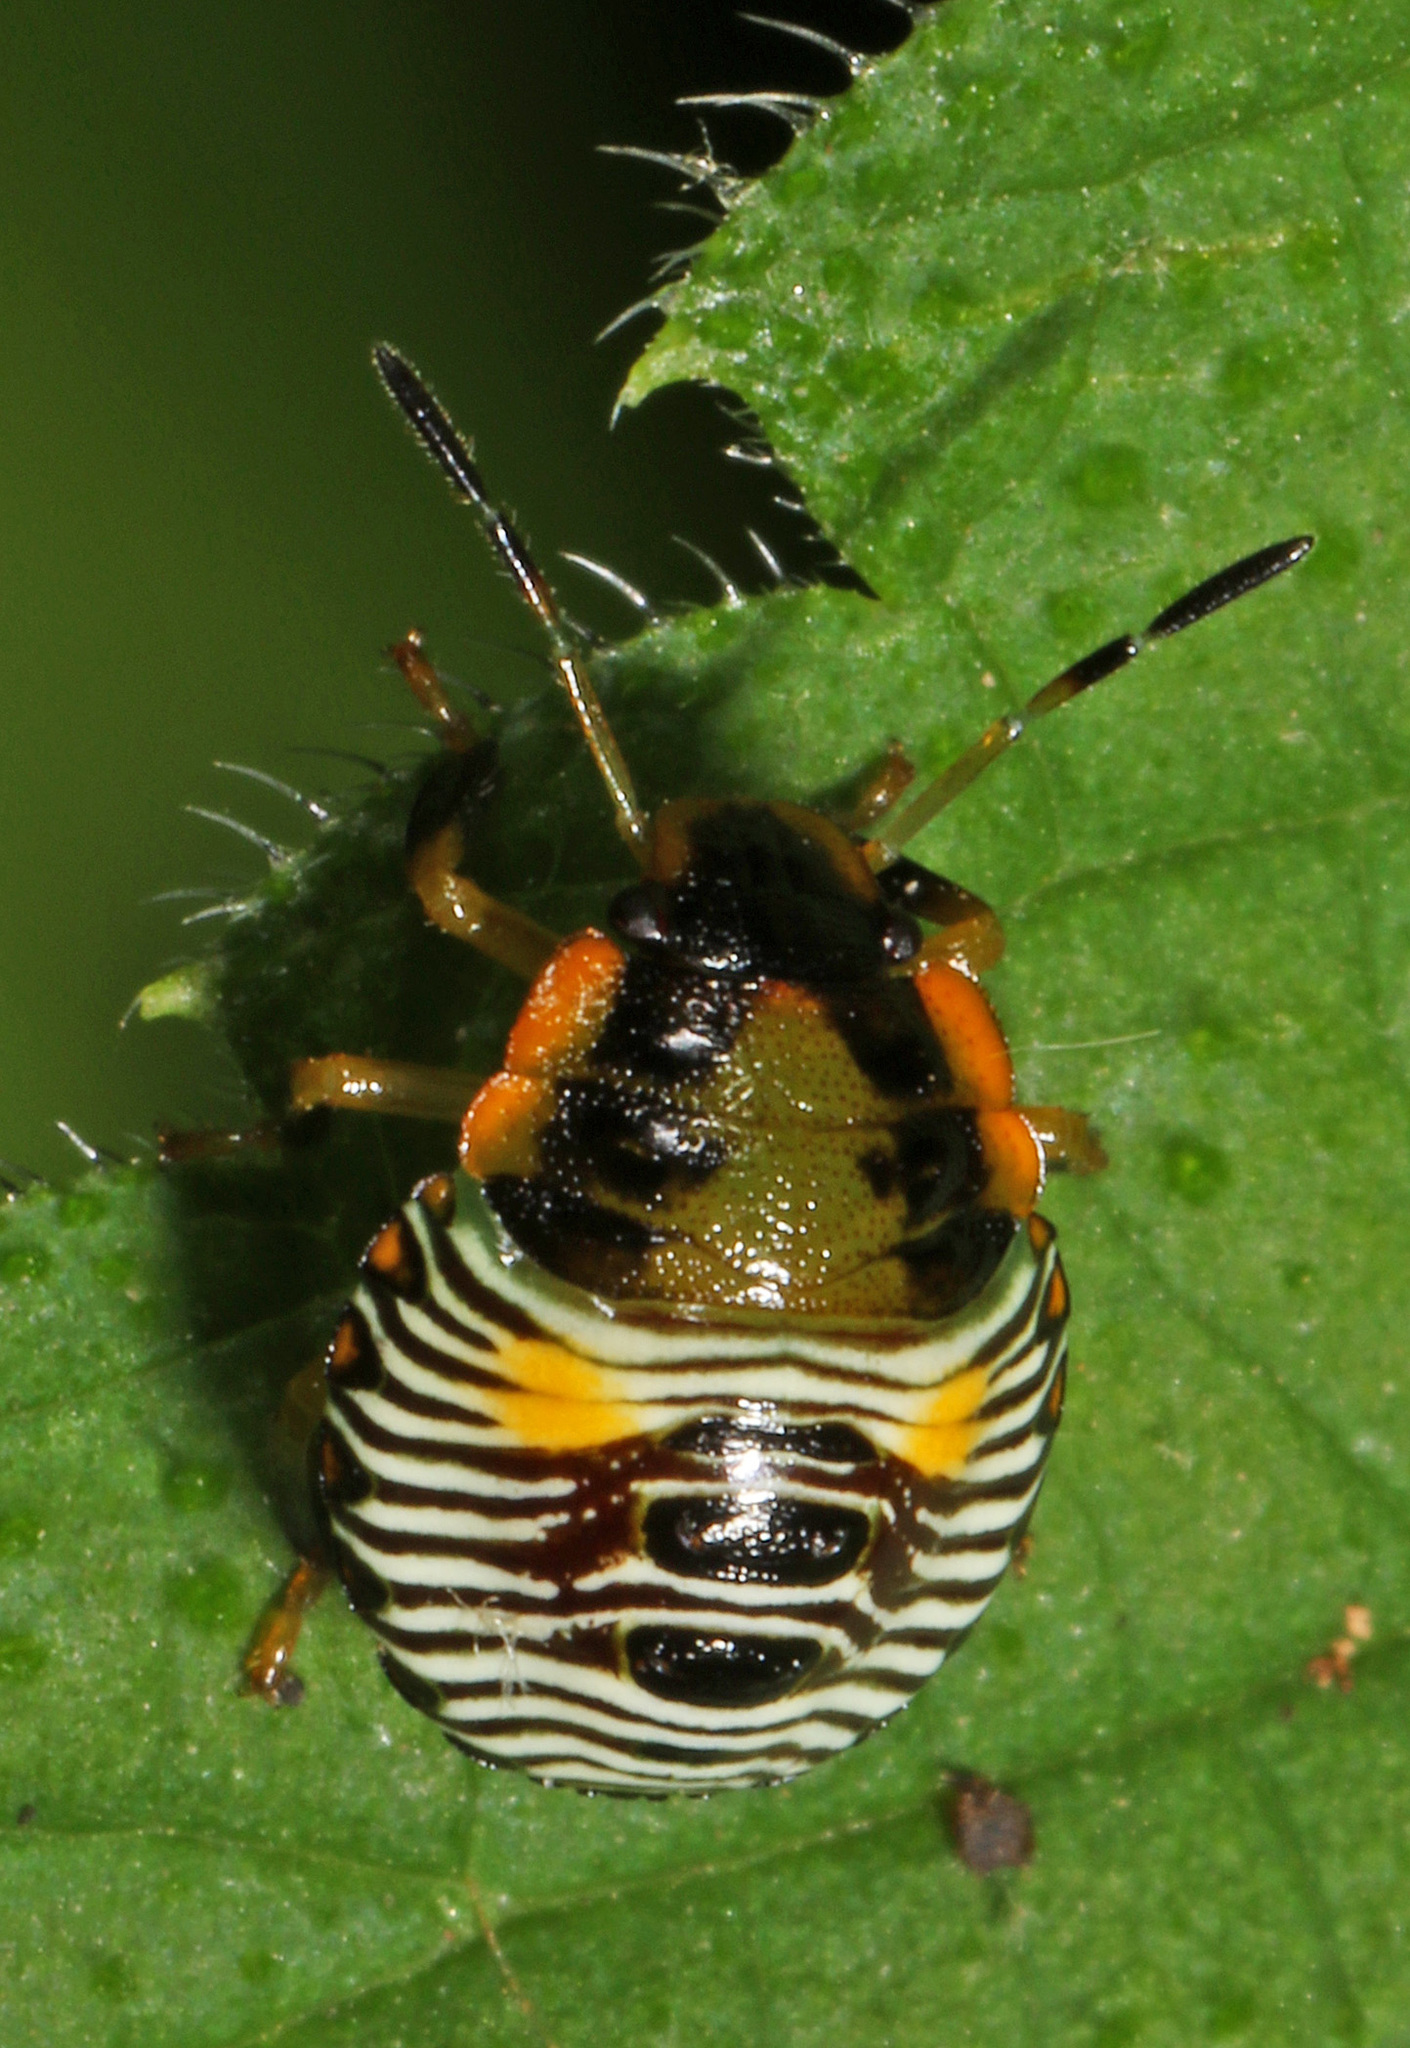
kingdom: Animalia
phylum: Arthropoda
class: Insecta
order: Hemiptera
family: Pentatomidae
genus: Chinavia
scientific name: Chinavia hilaris
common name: Green stink bug
